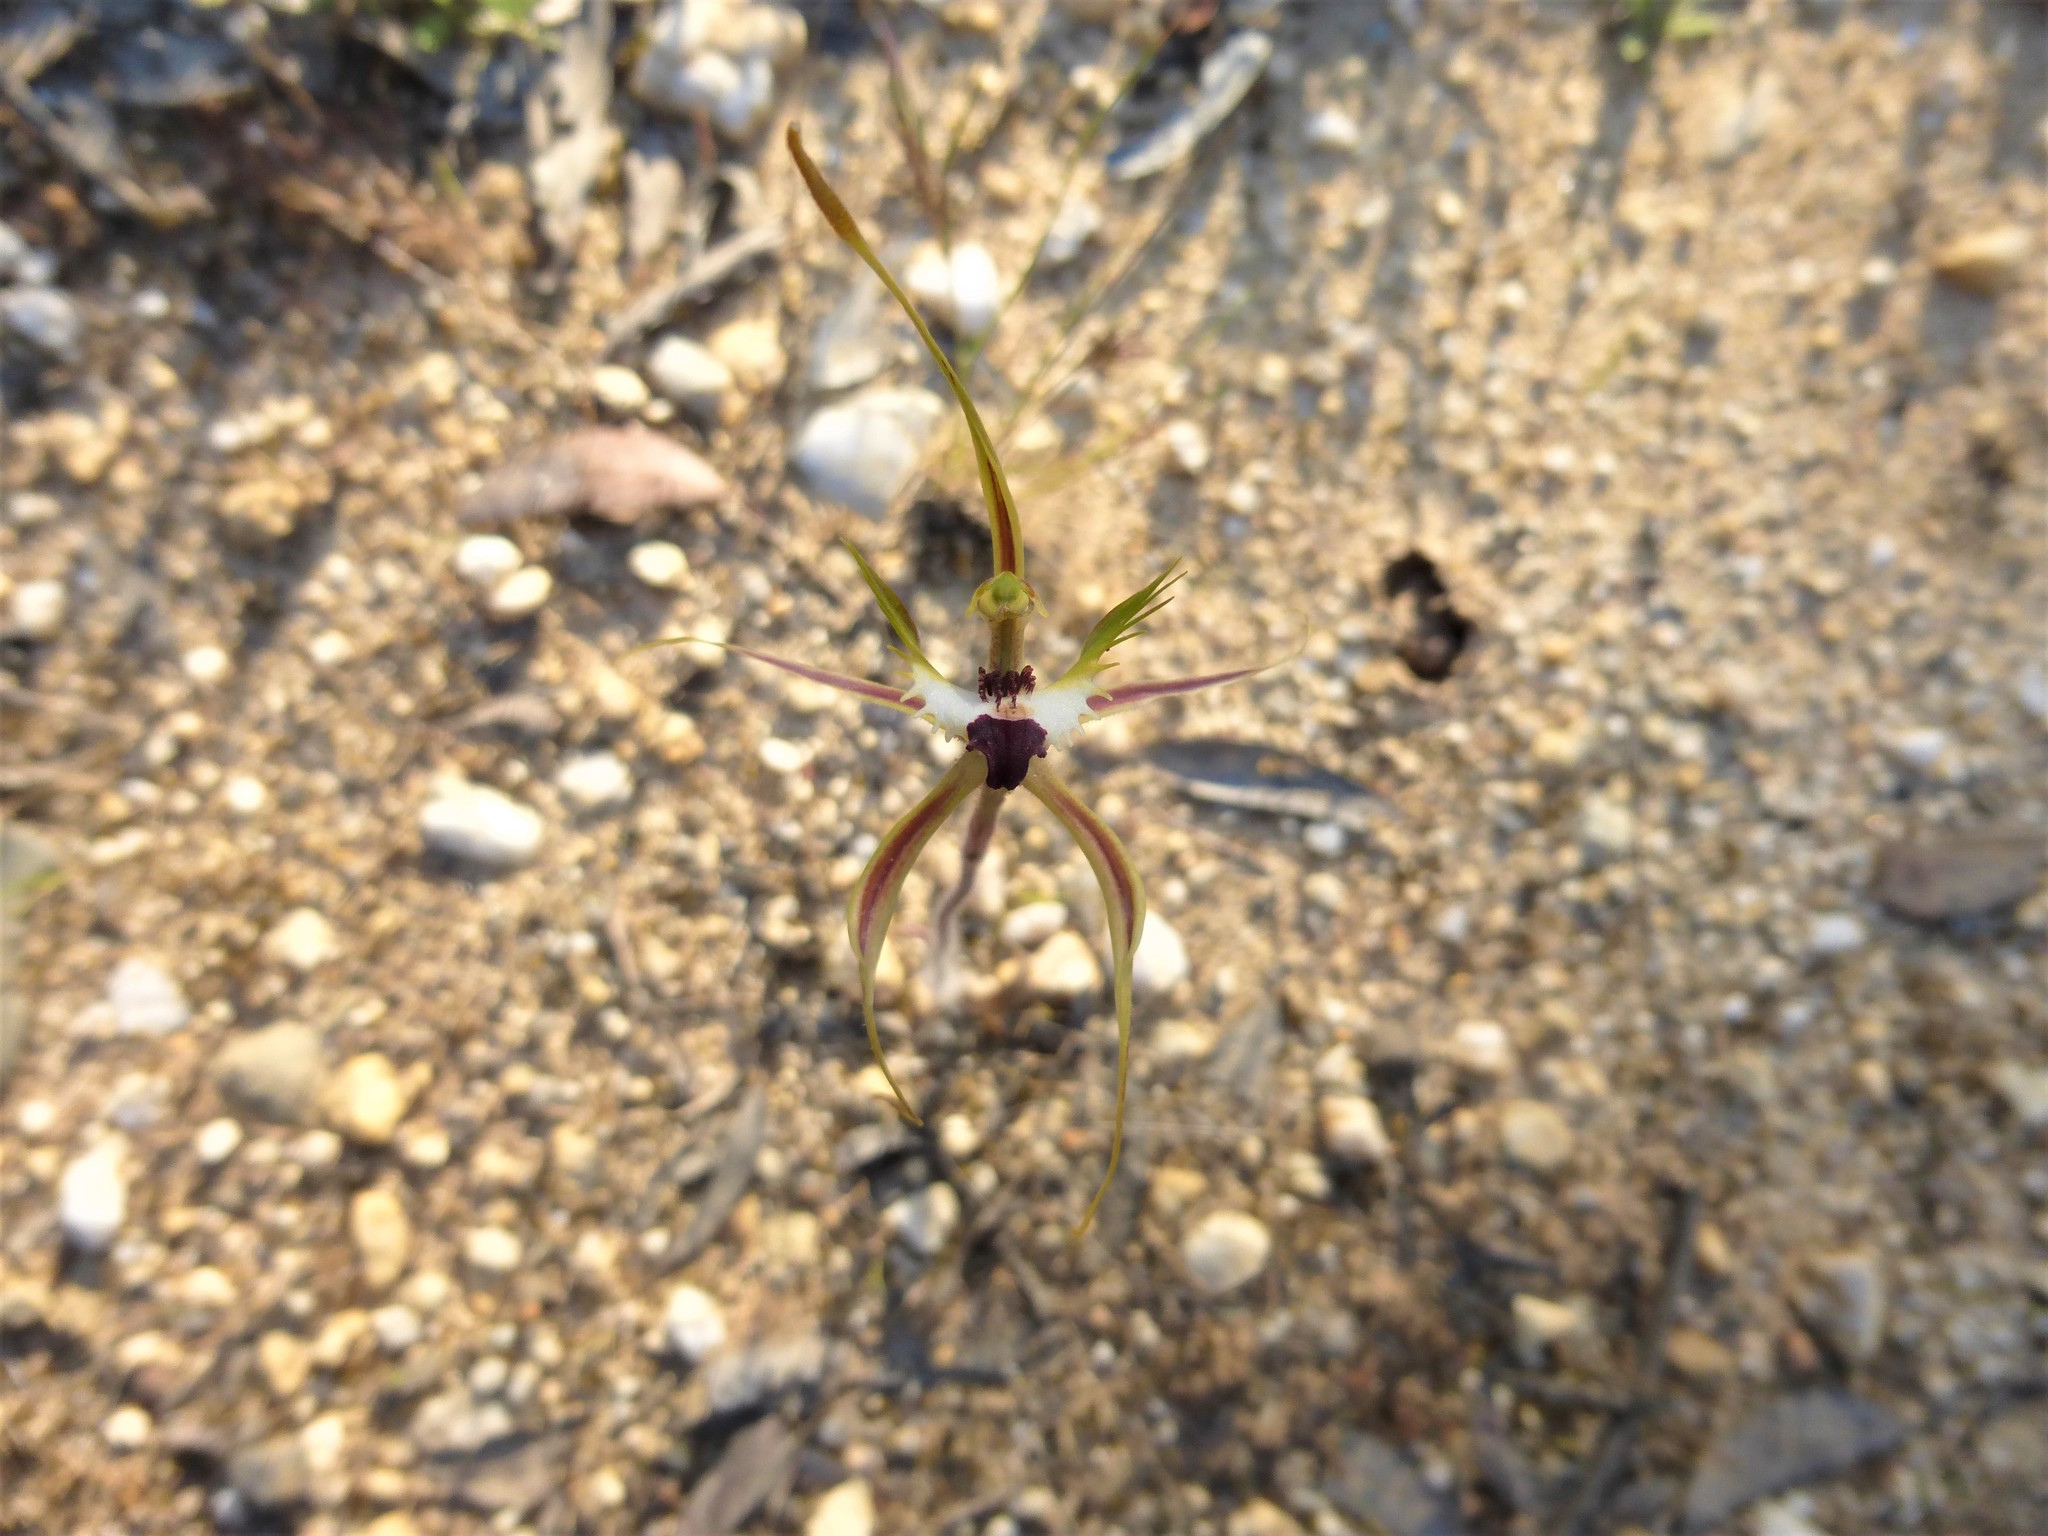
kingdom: Plantae
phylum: Tracheophyta
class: Liliopsida
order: Asparagales
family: Orchidaceae
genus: Caladenia
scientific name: Caladenia tentaculata
